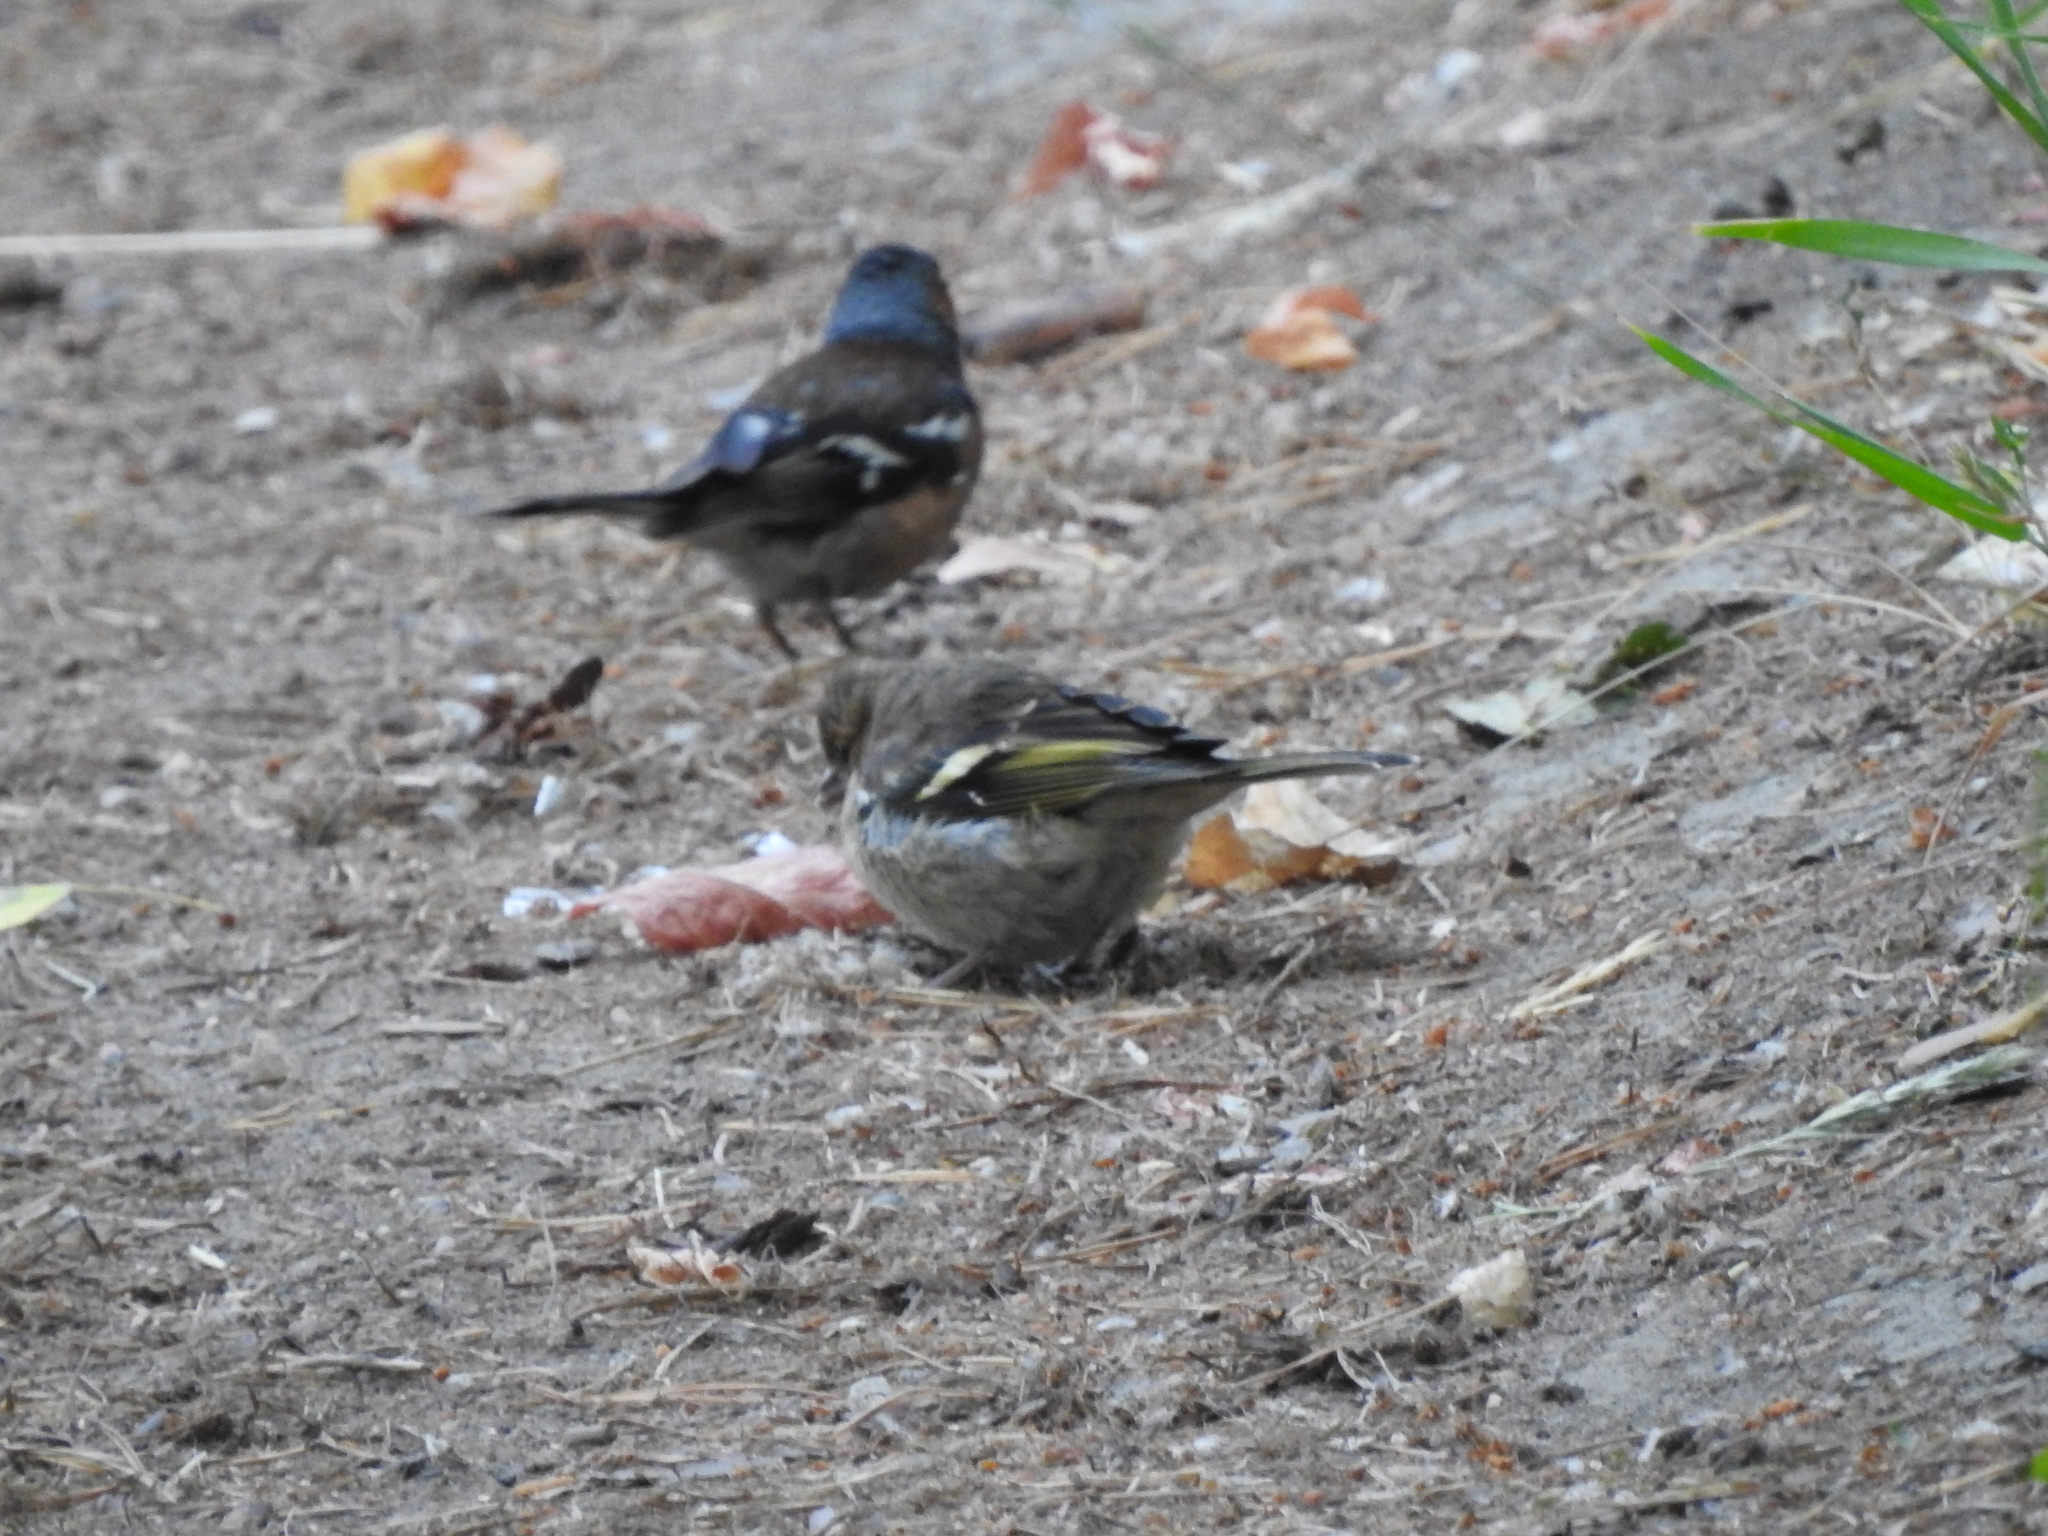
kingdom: Animalia
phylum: Chordata
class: Aves
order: Passeriformes
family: Fringillidae
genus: Fringilla
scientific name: Fringilla coelebs
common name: Common chaffinch
